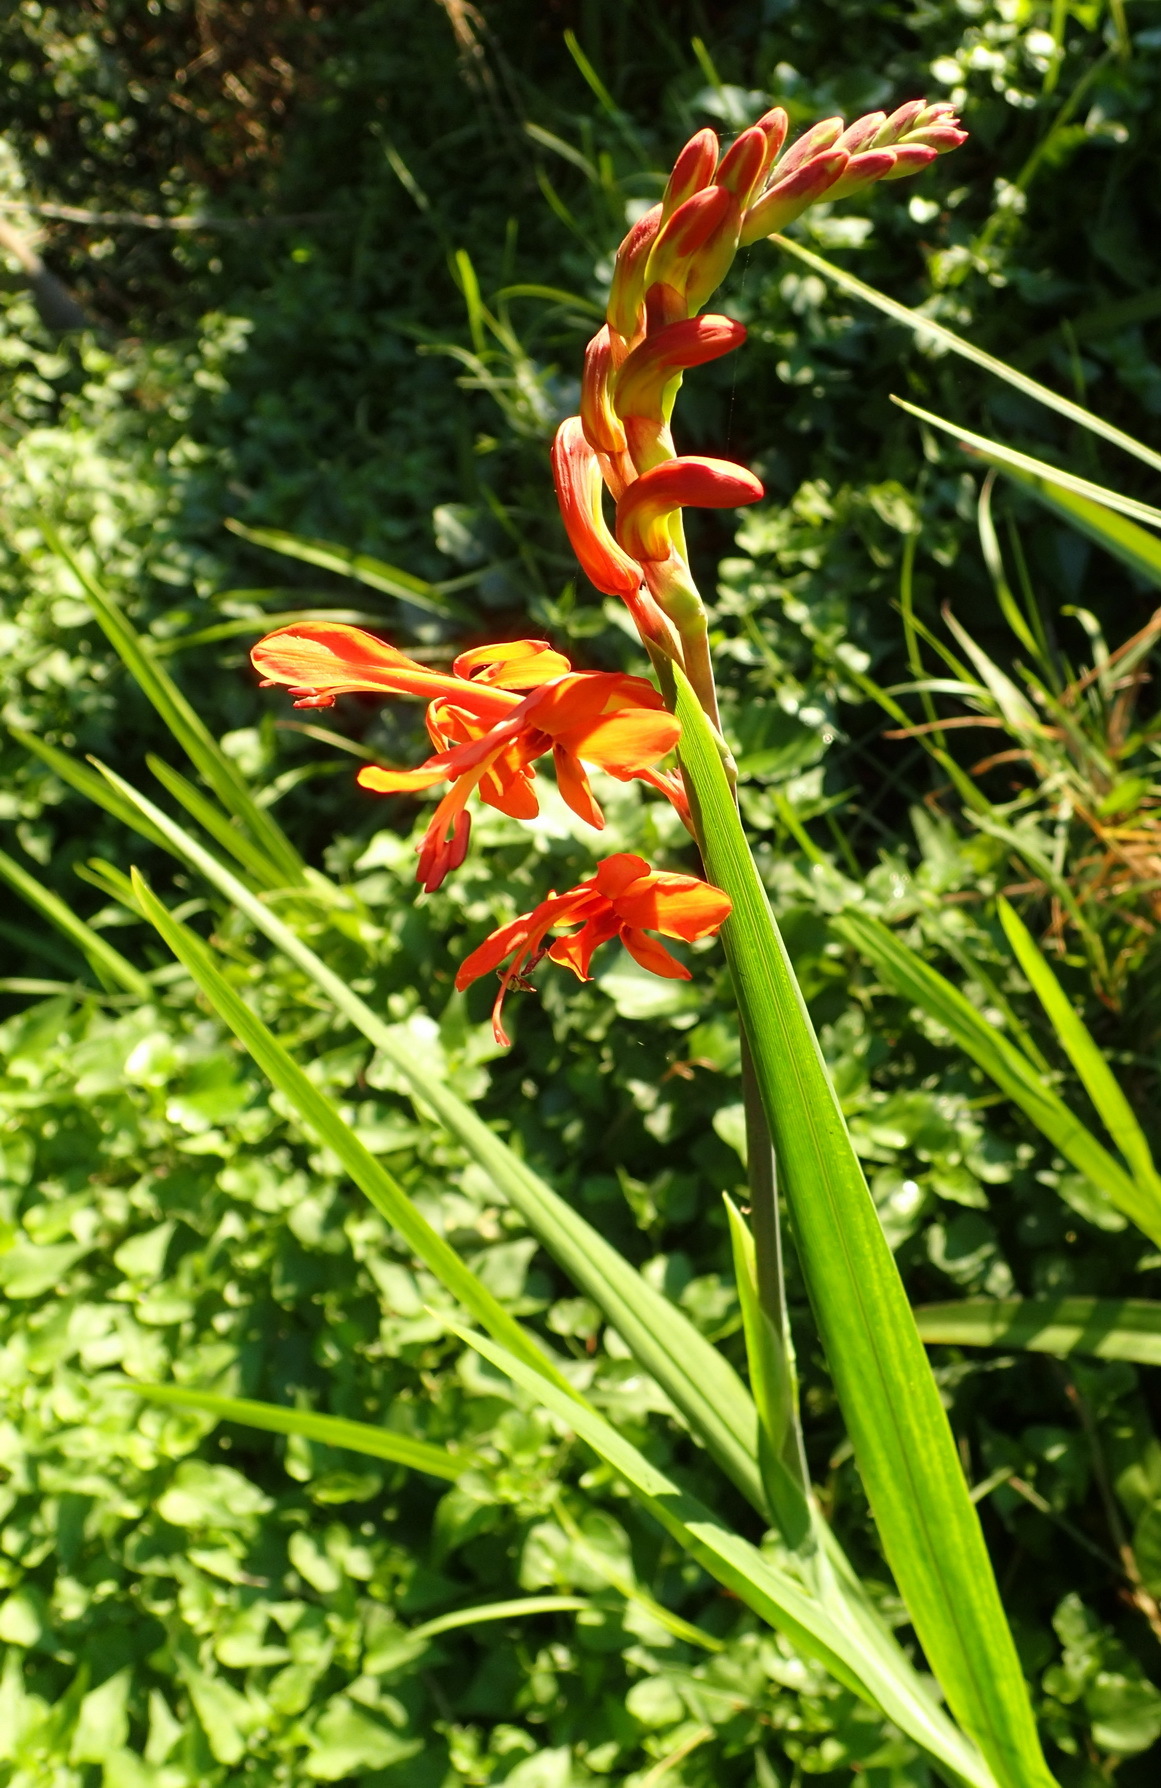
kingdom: Plantae
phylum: Tracheophyta
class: Liliopsida
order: Asparagales
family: Iridaceae
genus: Chasmanthe
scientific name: Chasmanthe aethiopica
